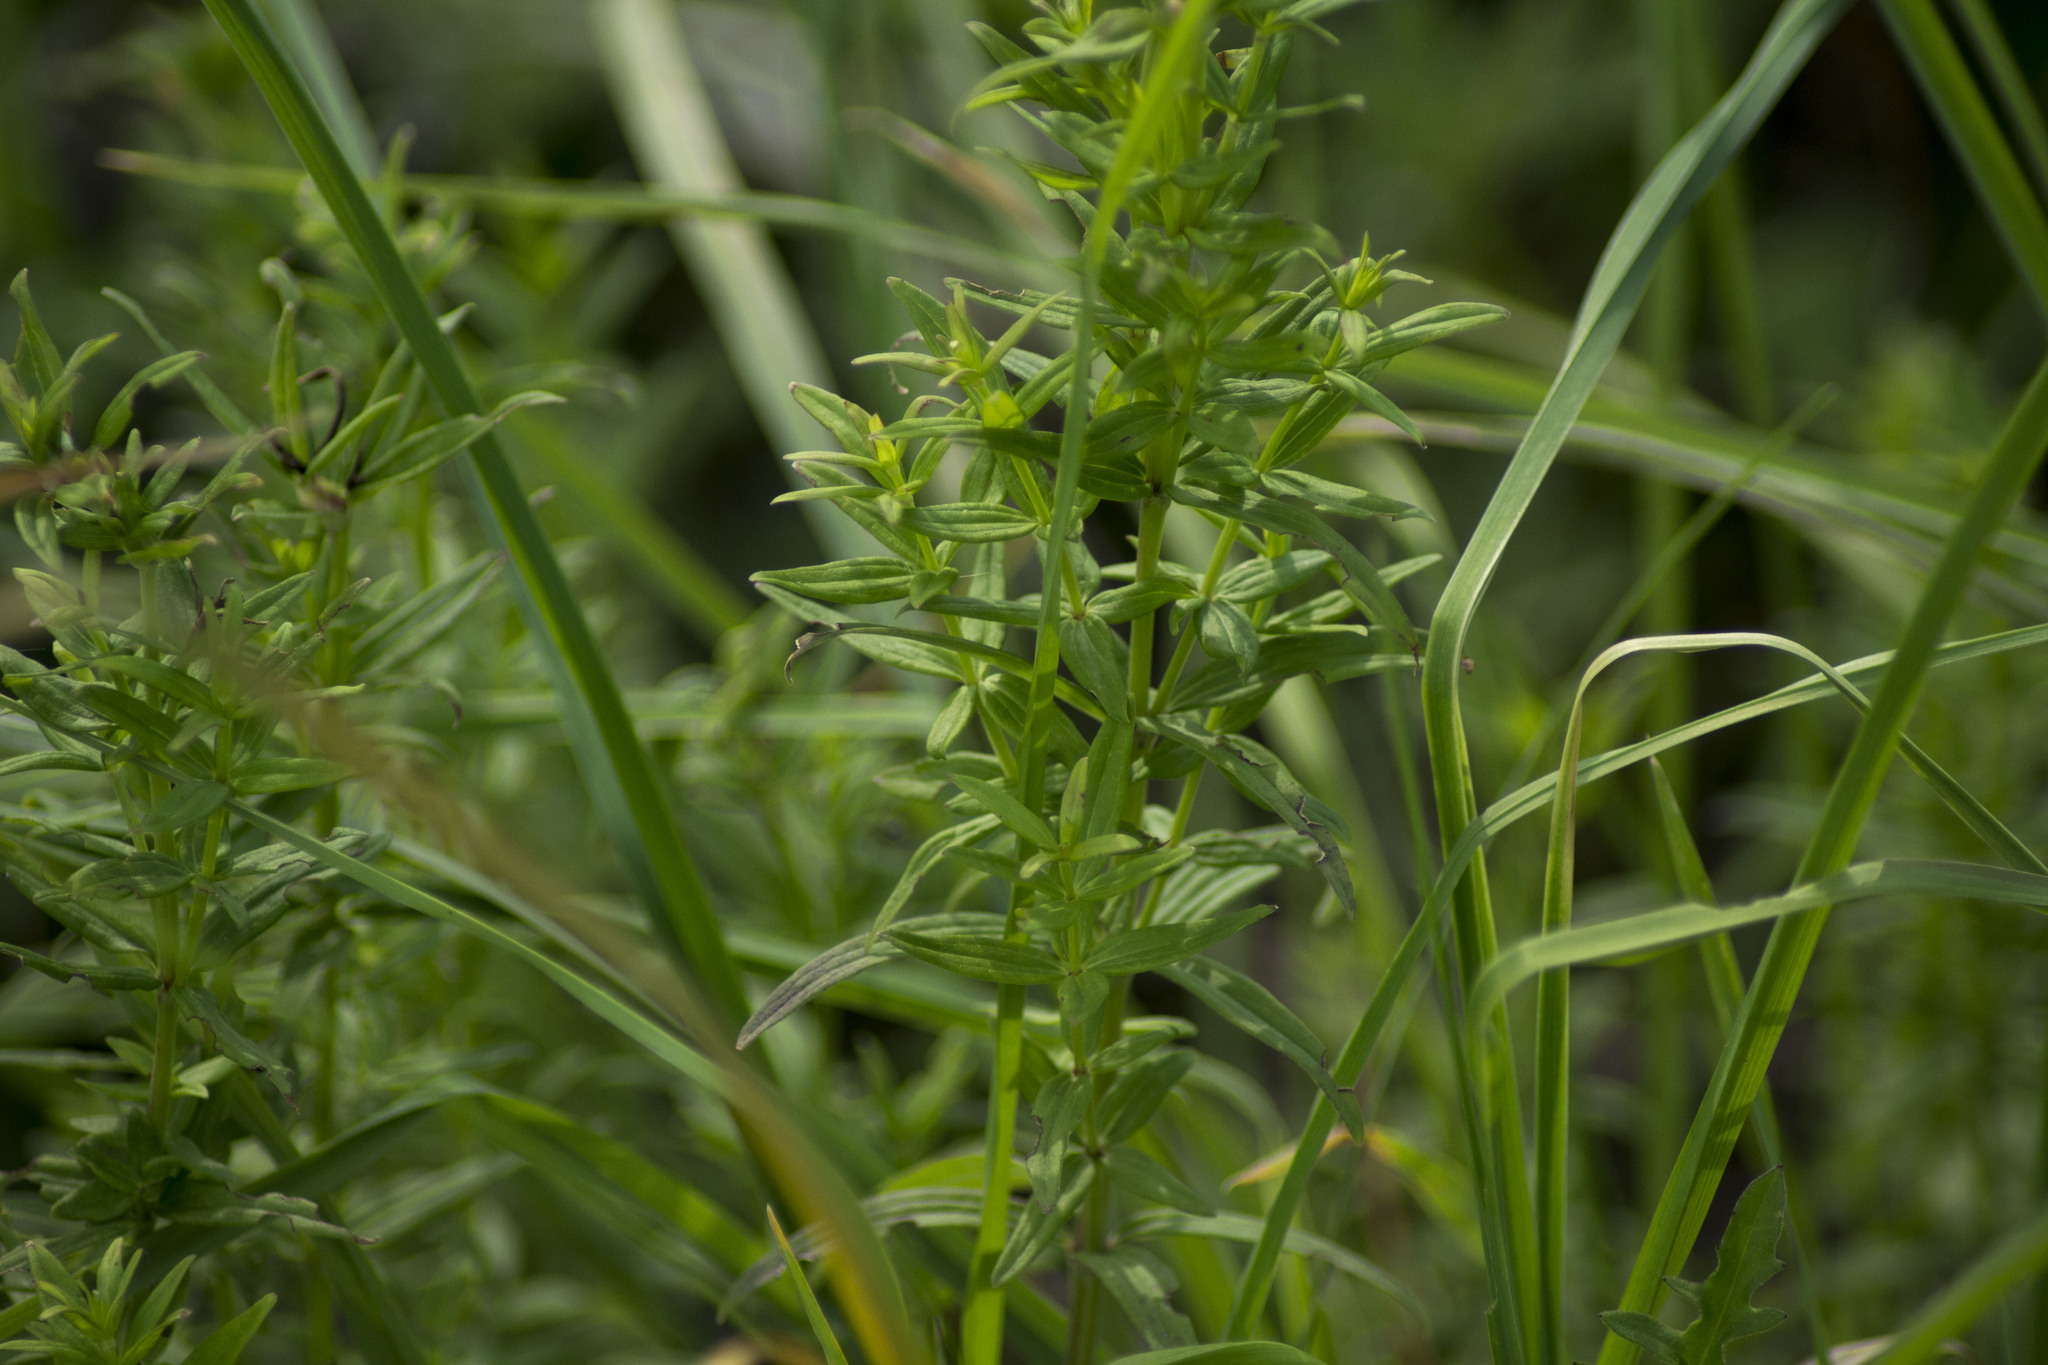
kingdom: Plantae
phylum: Tracheophyta
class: Magnoliopsida
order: Gentianales
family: Rubiaceae
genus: Galium
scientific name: Galium boreale
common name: Northern bedstraw
